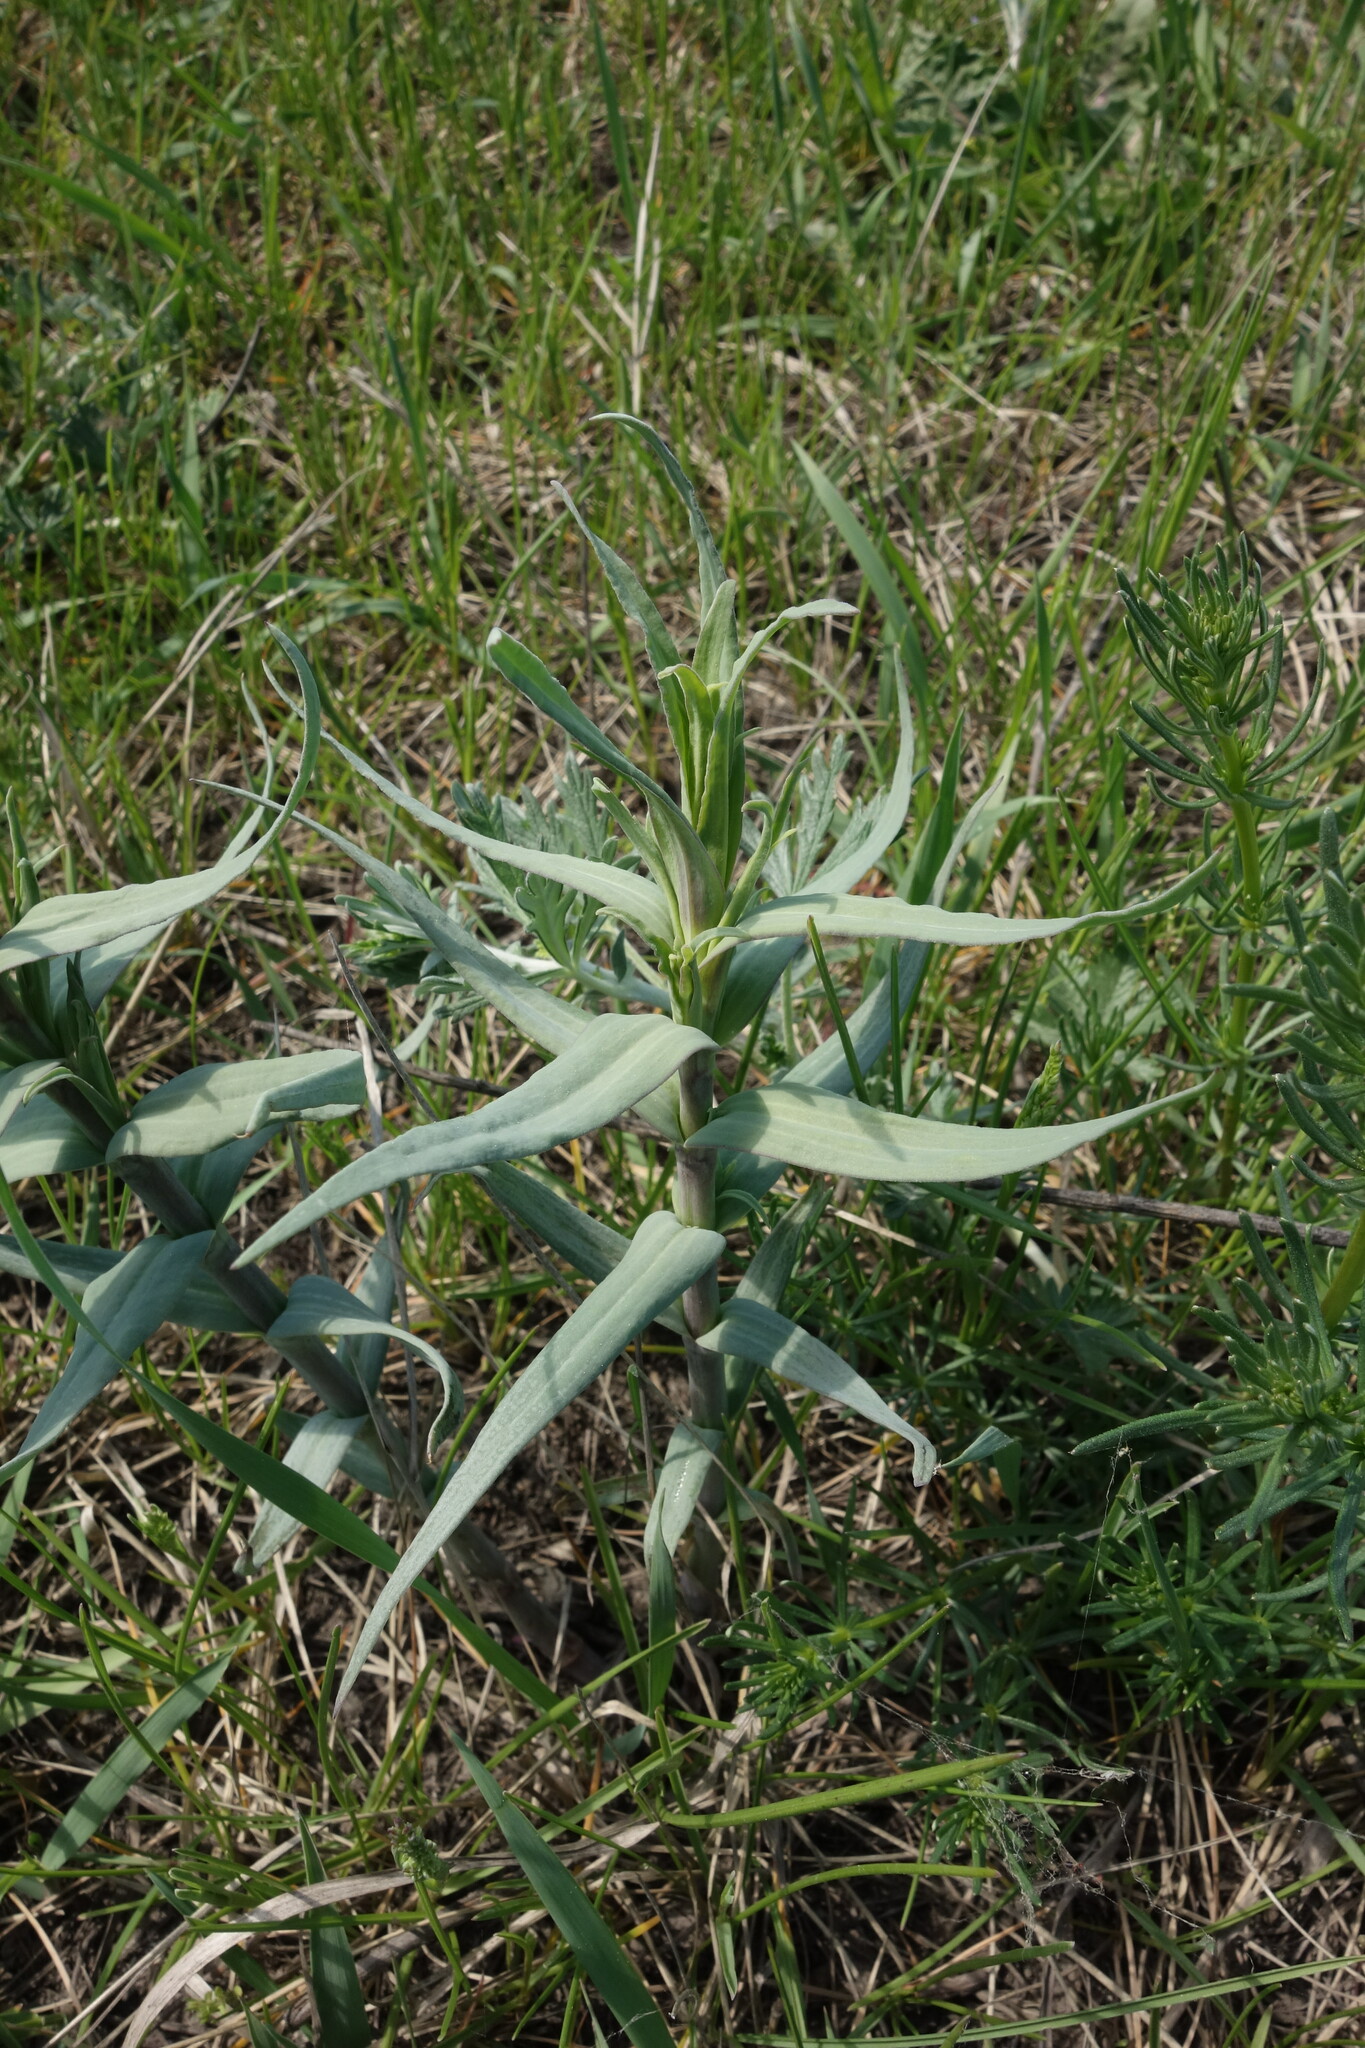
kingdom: Plantae
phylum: Tracheophyta
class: Magnoliopsida
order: Caryophyllales
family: Caryophyllaceae
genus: Gypsophila
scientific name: Gypsophila paniculata
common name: Baby's-breath
